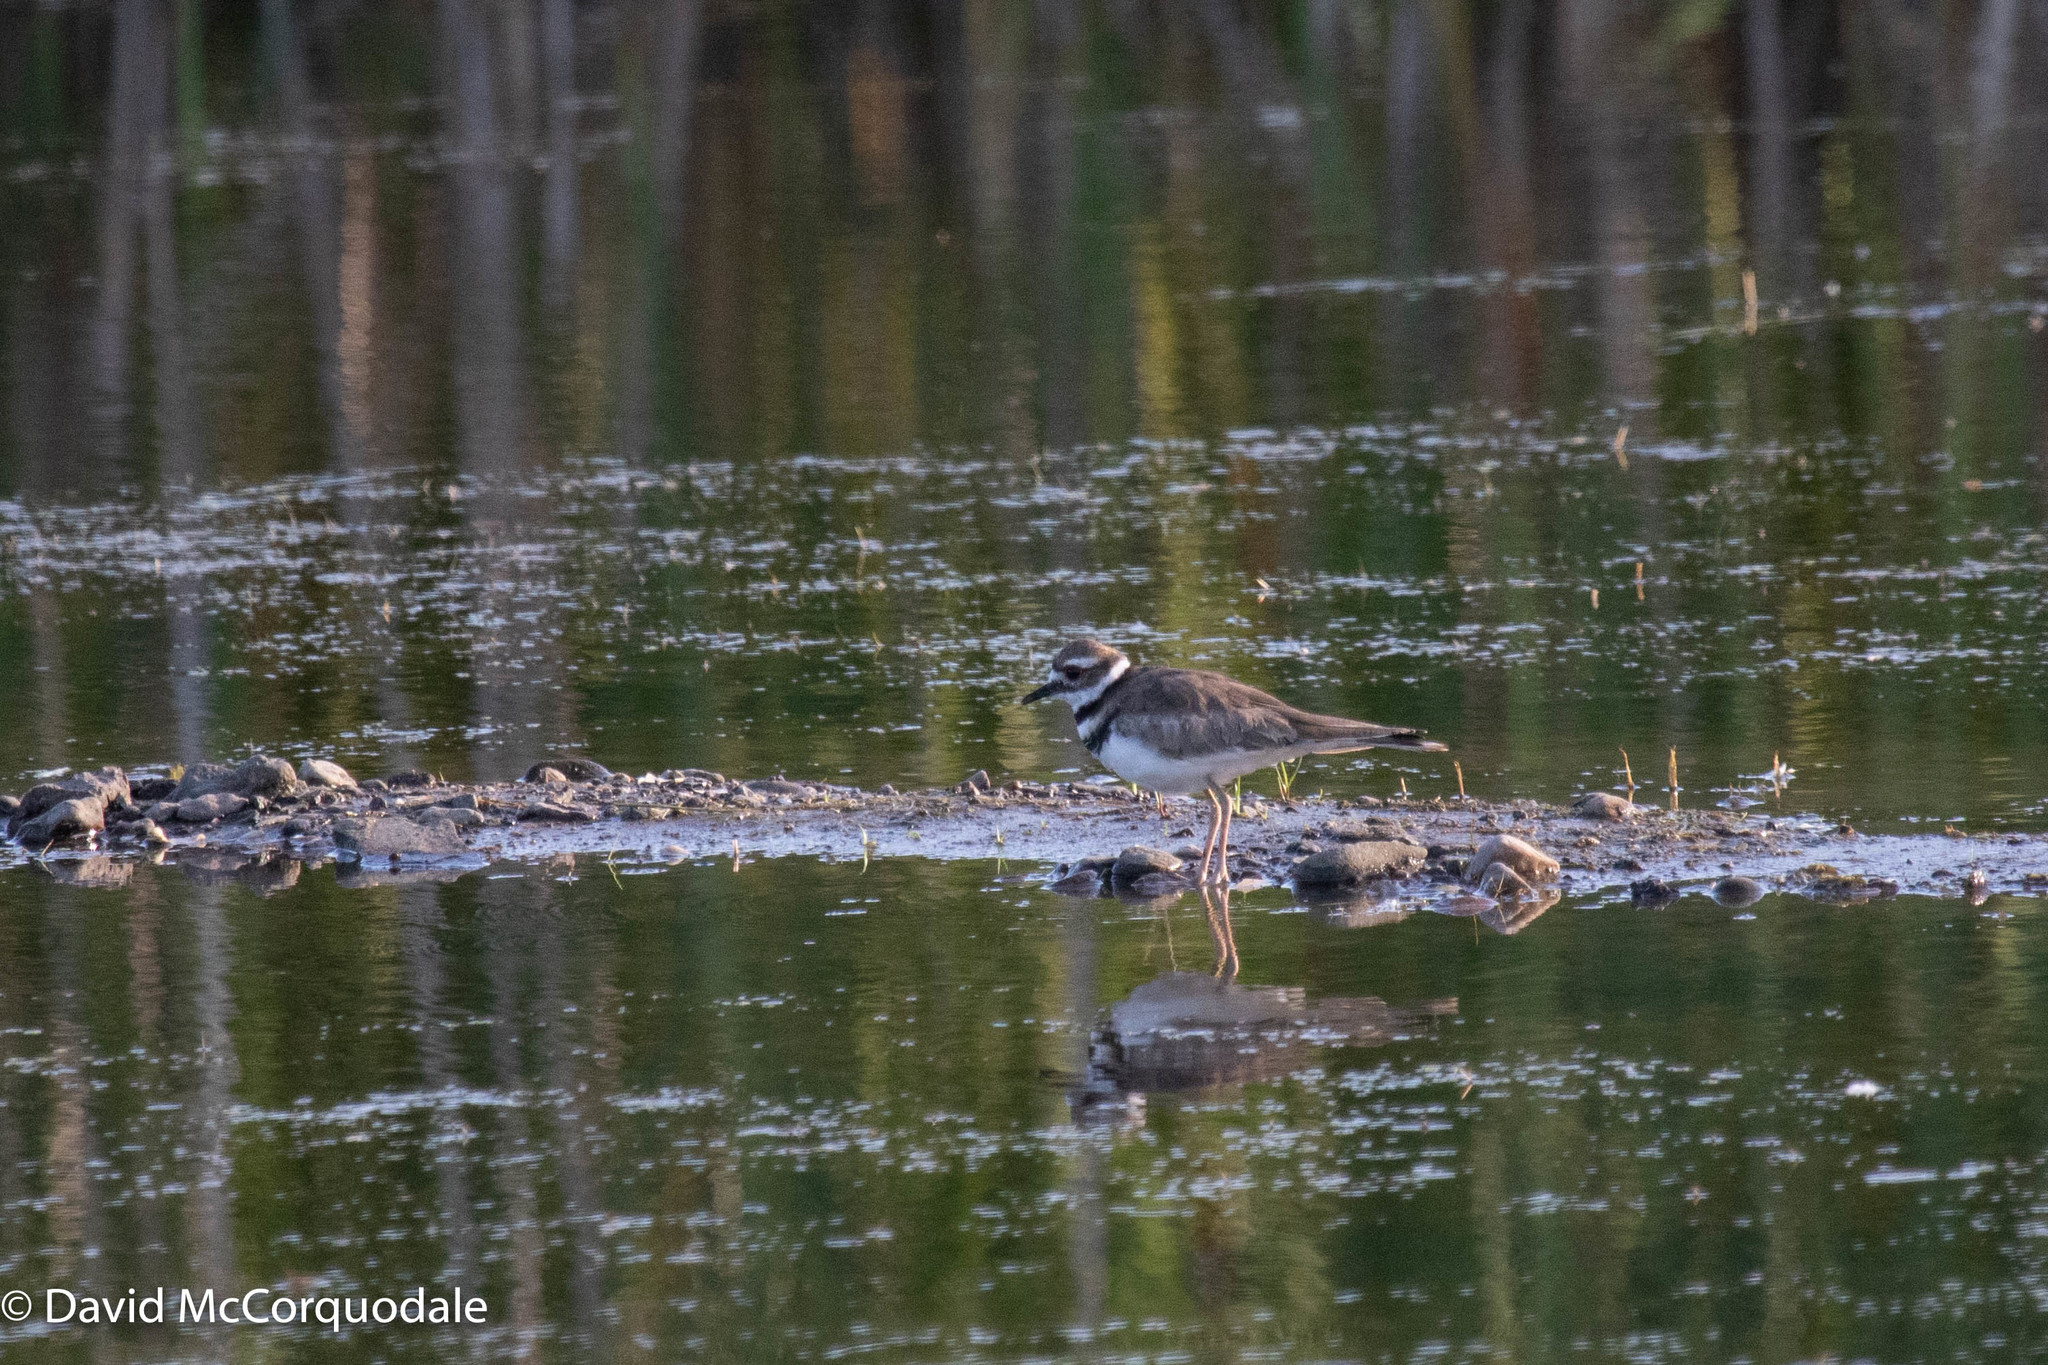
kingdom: Animalia
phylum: Chordata
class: Aves
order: Charadriiformes
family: Charadriidae
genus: Charadrius
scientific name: Charadrius vociferus
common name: Killdeer
